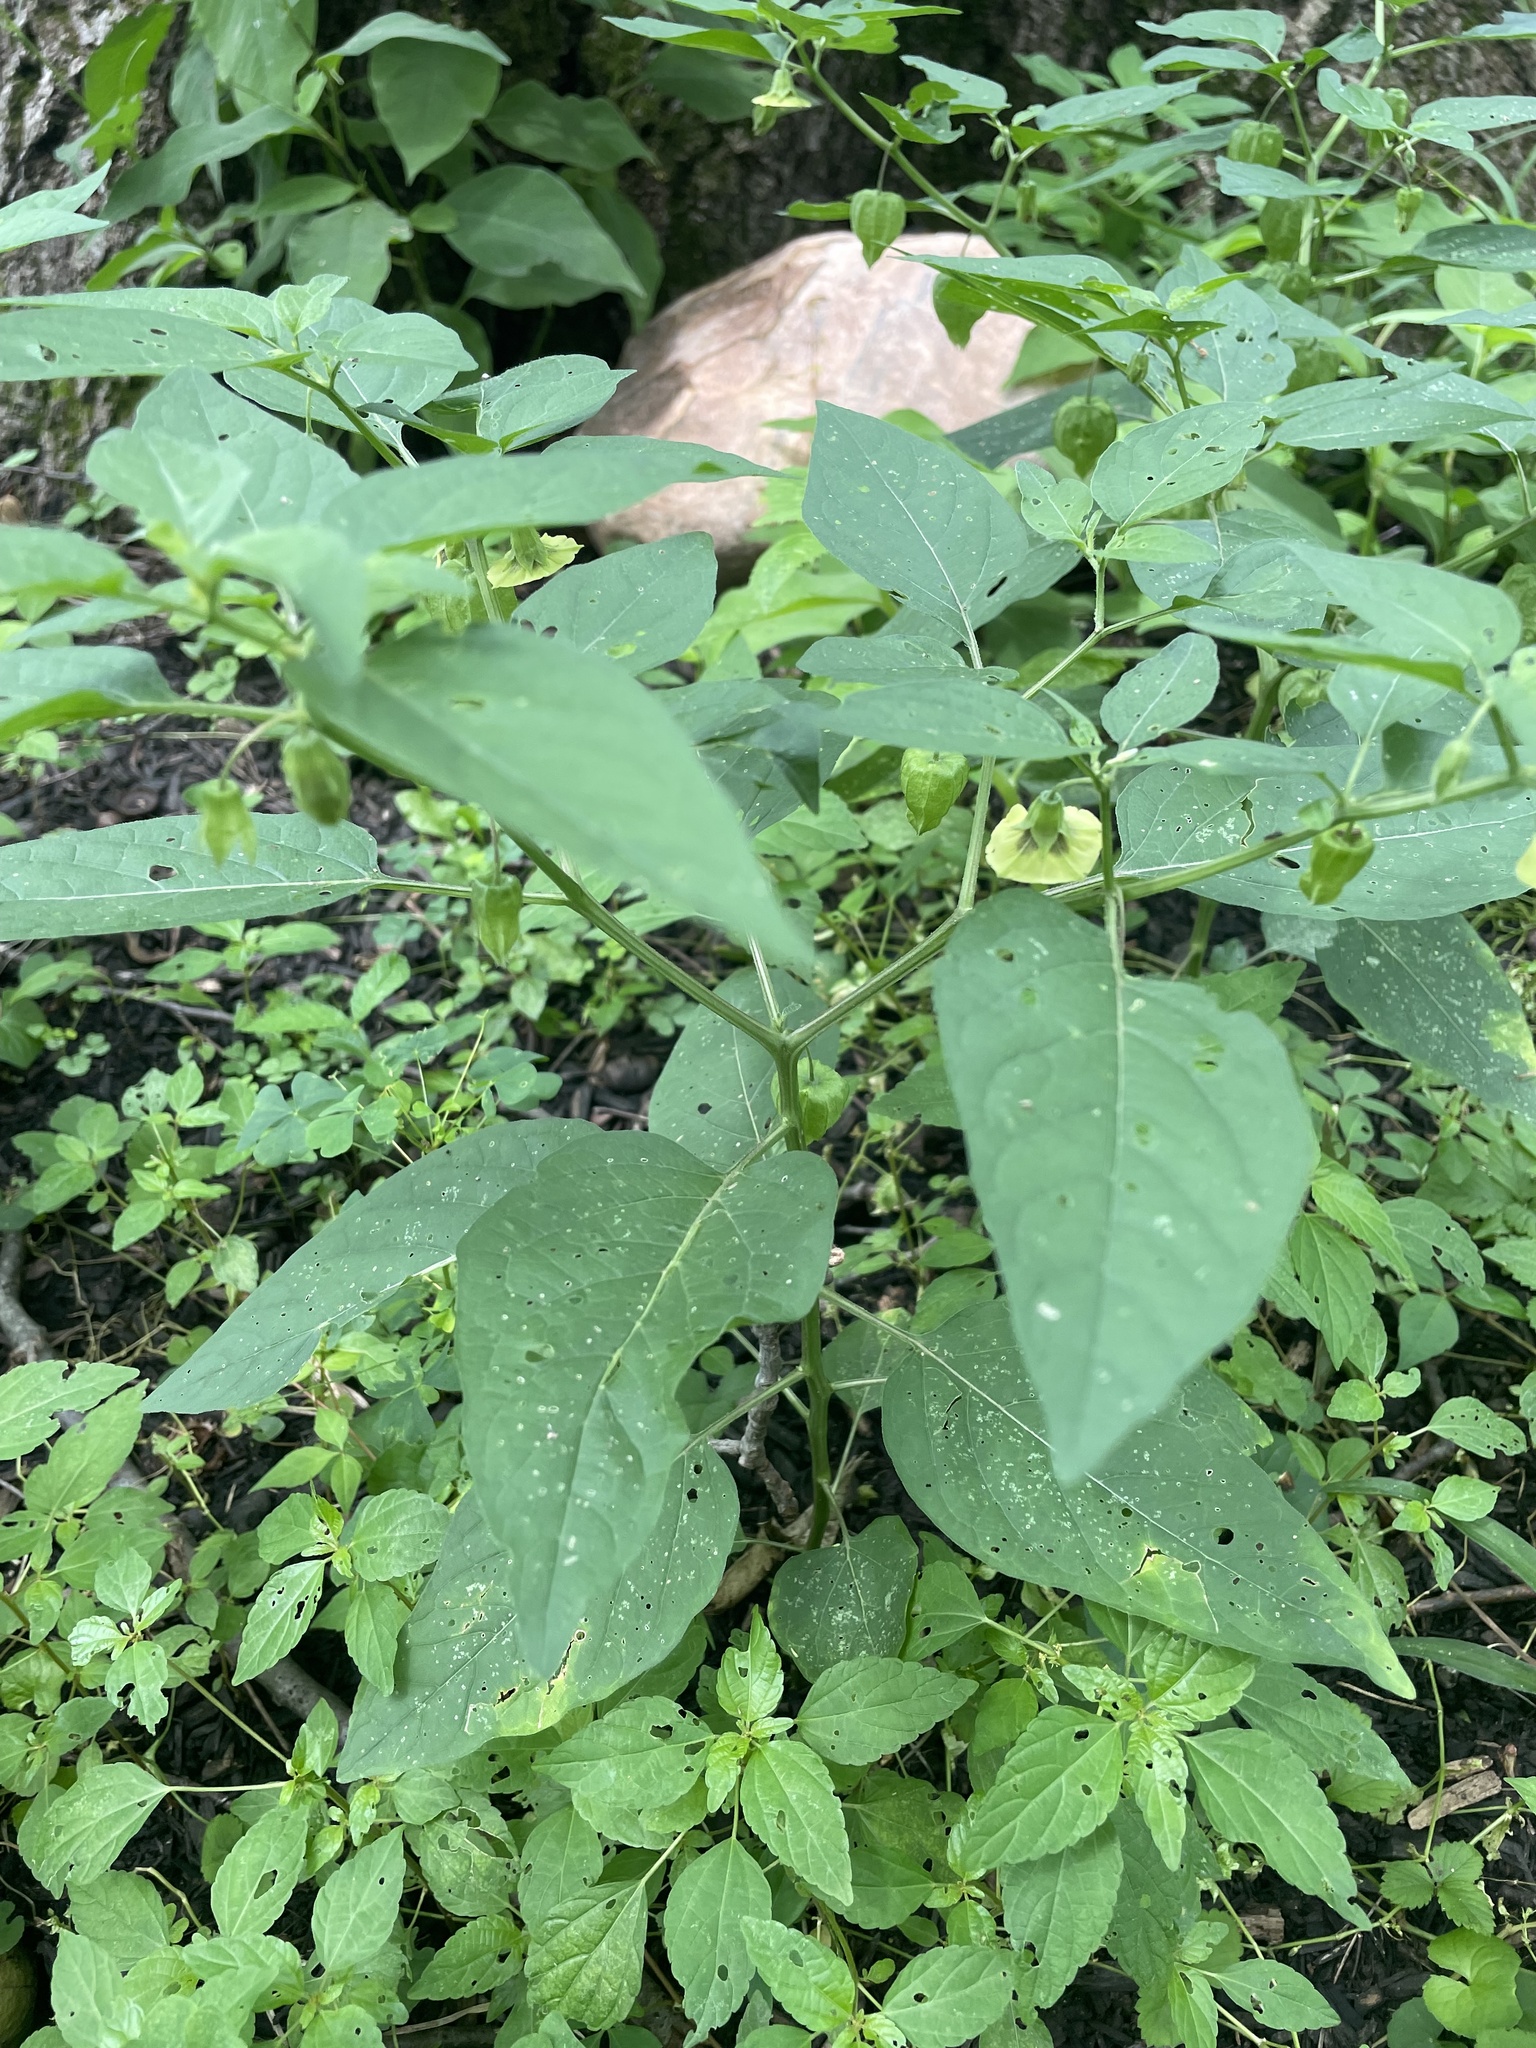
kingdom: Plantae
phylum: Tracheophyta
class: Magnoliopsida
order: Solanales
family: Solanaceae
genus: Physalis
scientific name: Physalis longifolia
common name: Common ground-cherry
